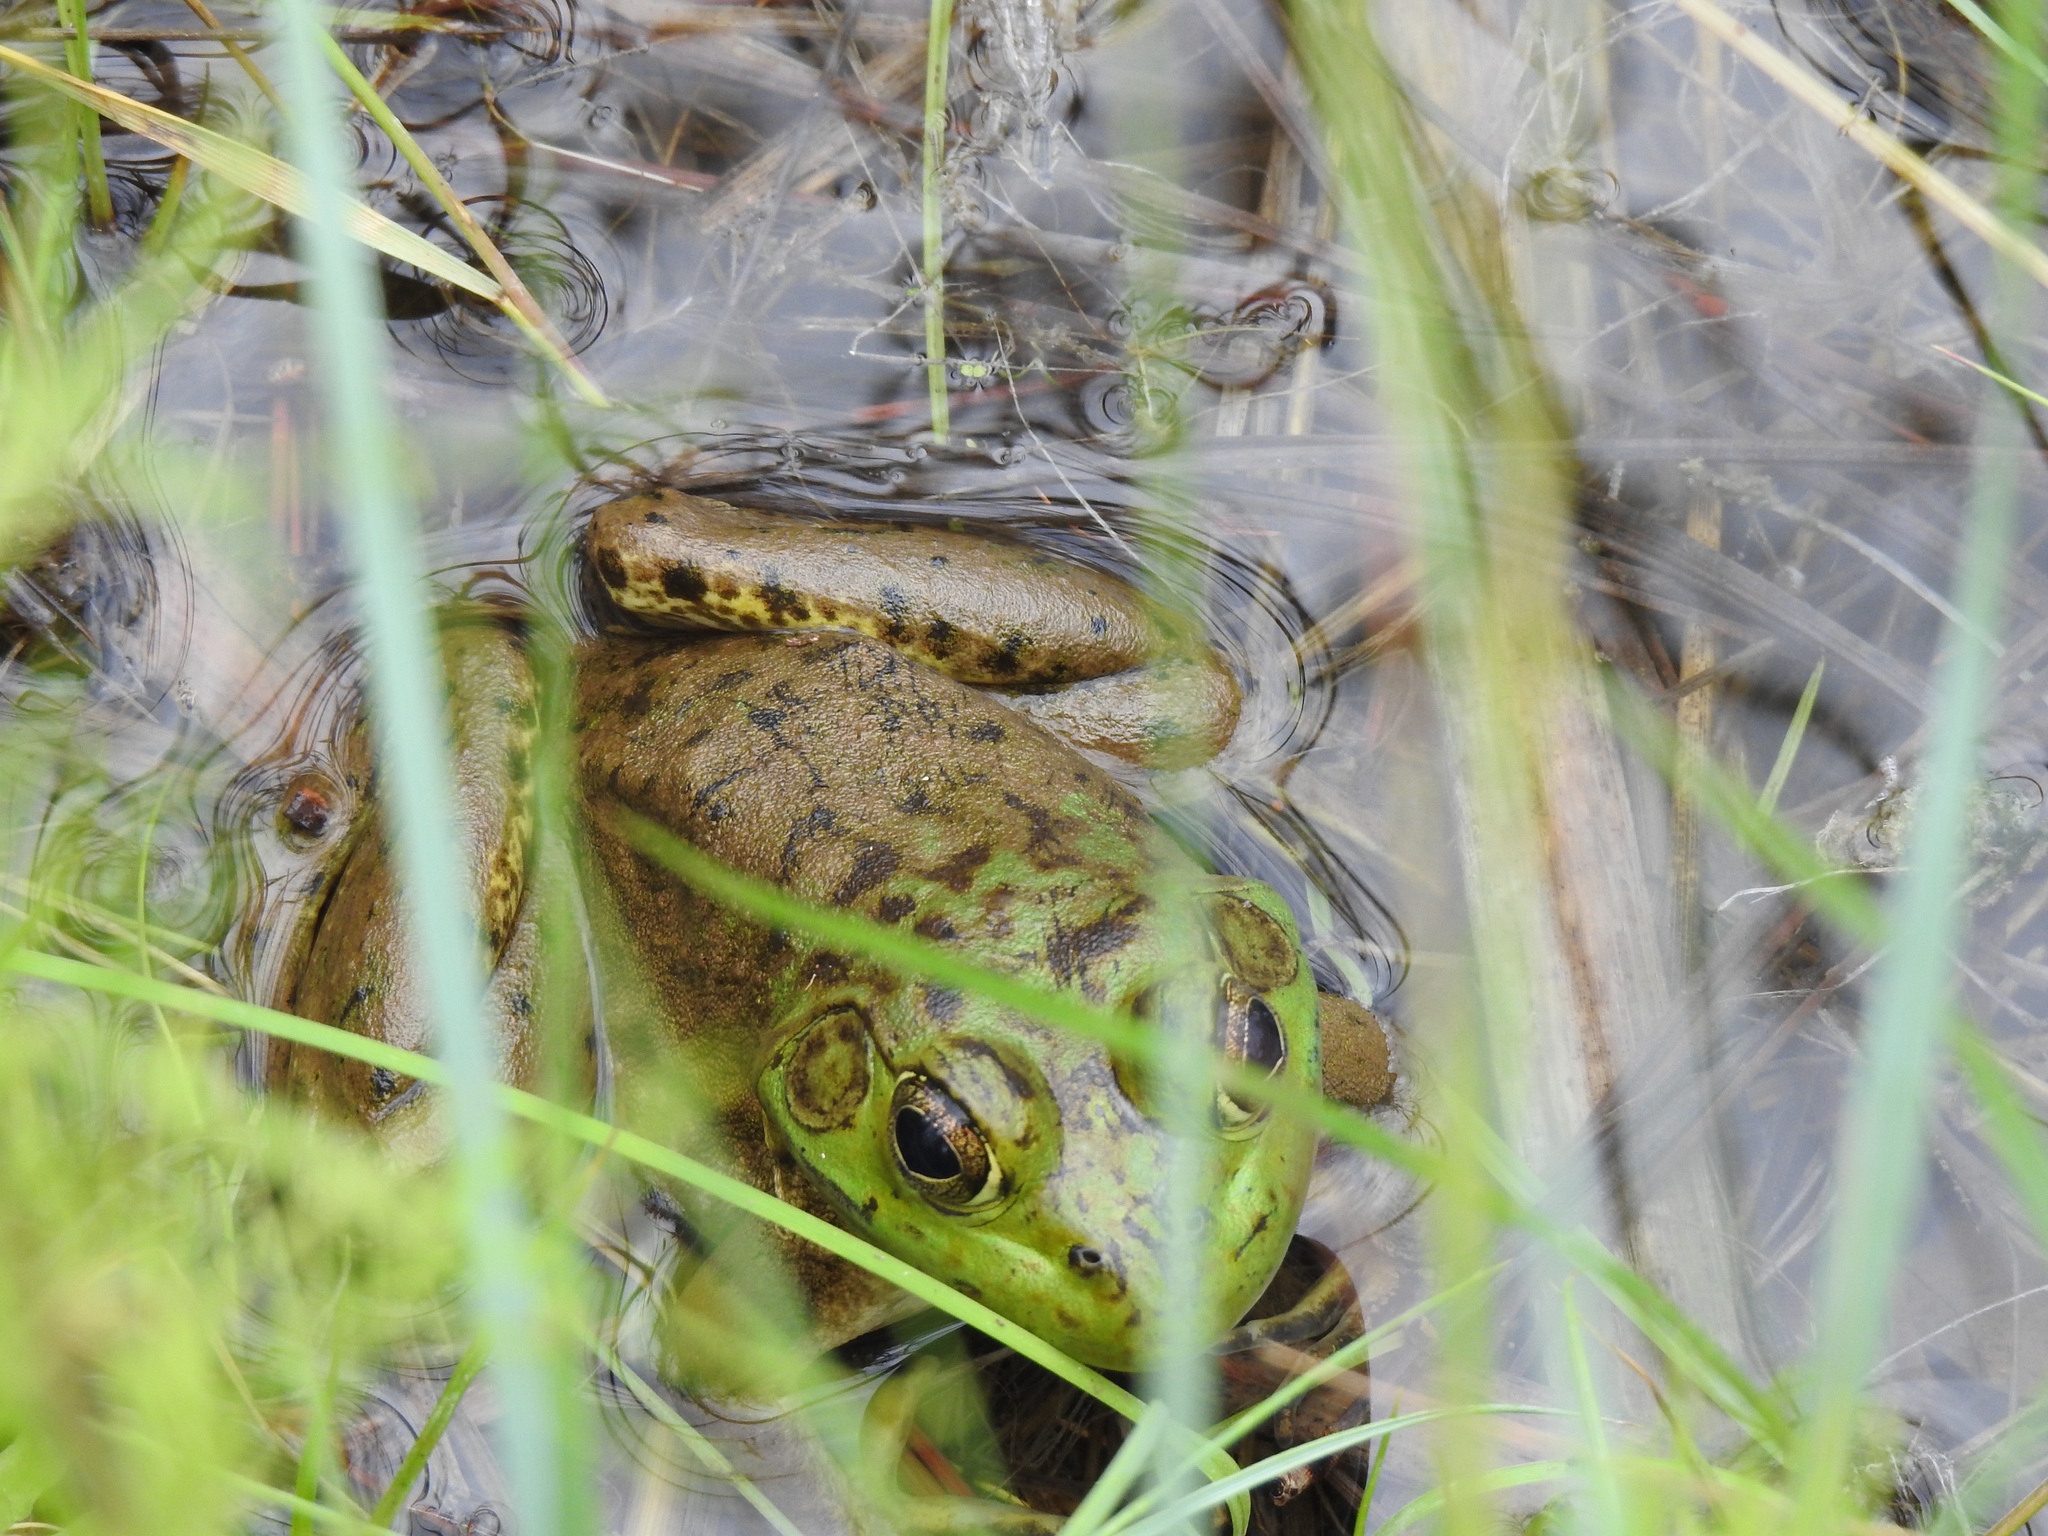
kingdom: Animalia
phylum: Chordata
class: Amphibia
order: Anura
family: Ranidae
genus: Lithobates
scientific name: Lithobates catesbeianus
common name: American bullfrog
